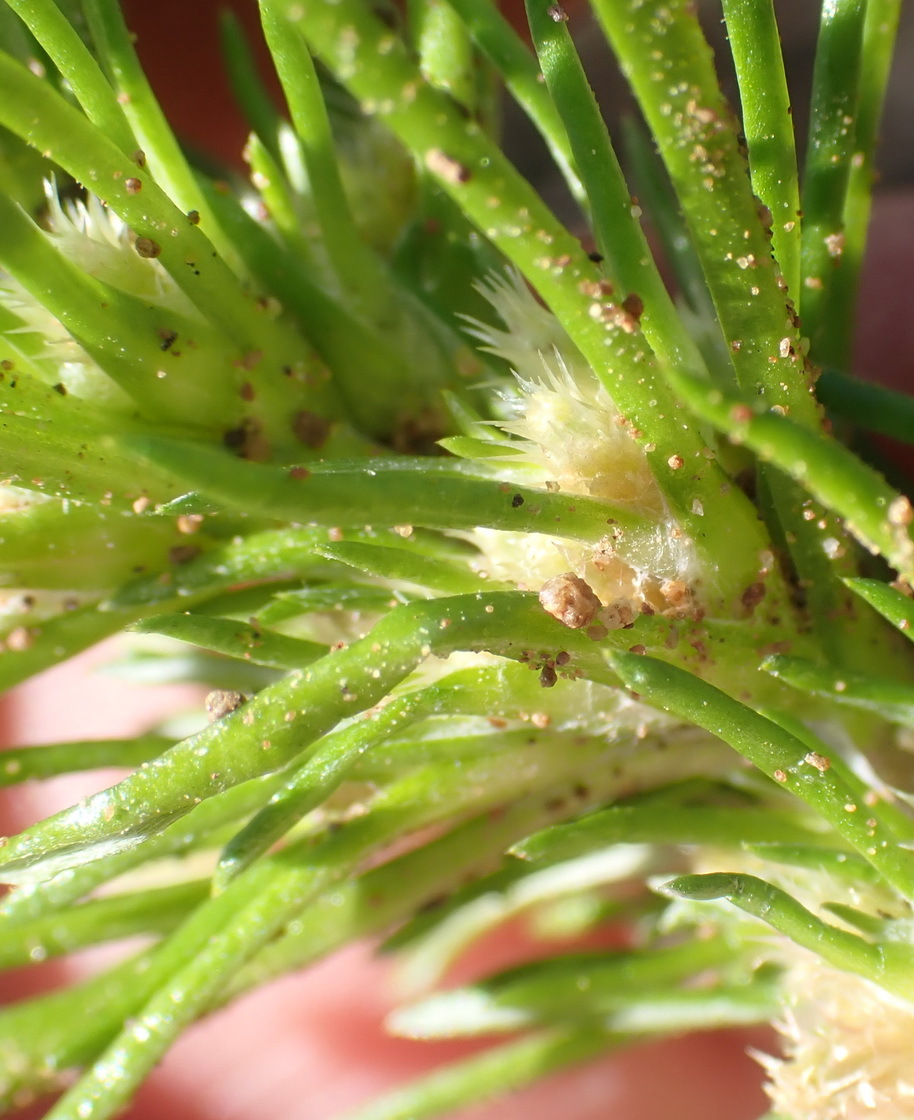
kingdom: Plantae
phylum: Tracheophyta
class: Magnoliopsida
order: Asterales
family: Asteraceae
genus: Ifloga
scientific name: Ifloga glomerata
